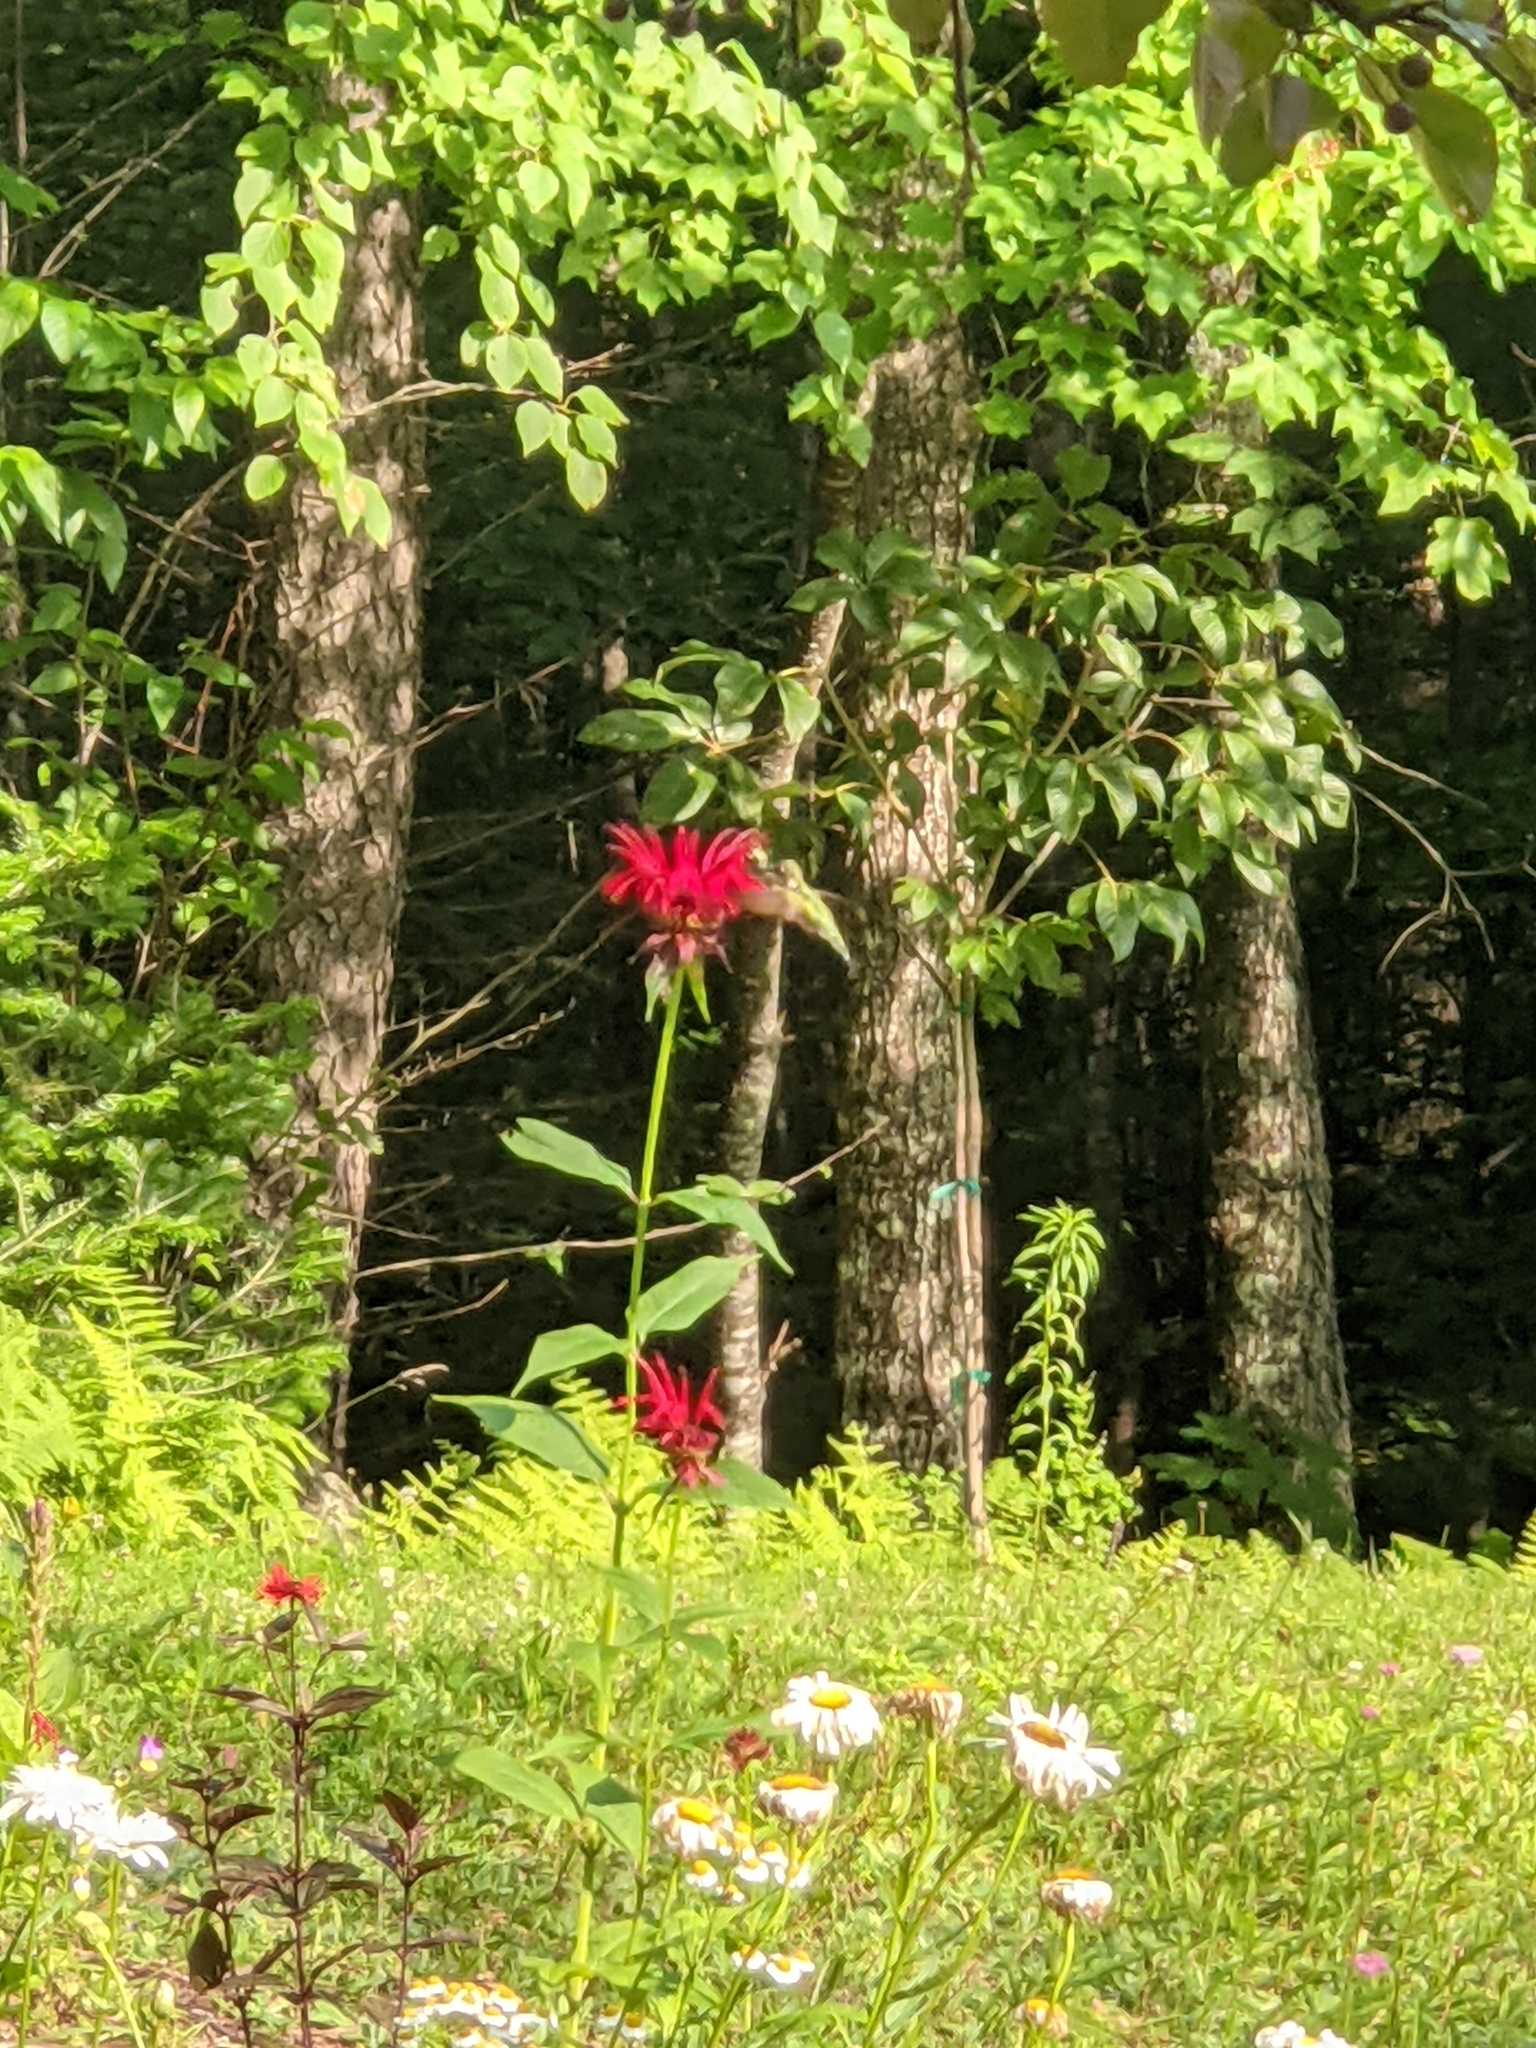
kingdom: Animalia
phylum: Chordata
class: Aves
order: Apodiformes
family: Trochilidae
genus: Archilochus
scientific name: Archilochus colubris
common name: Ruby-throated hummingbird
